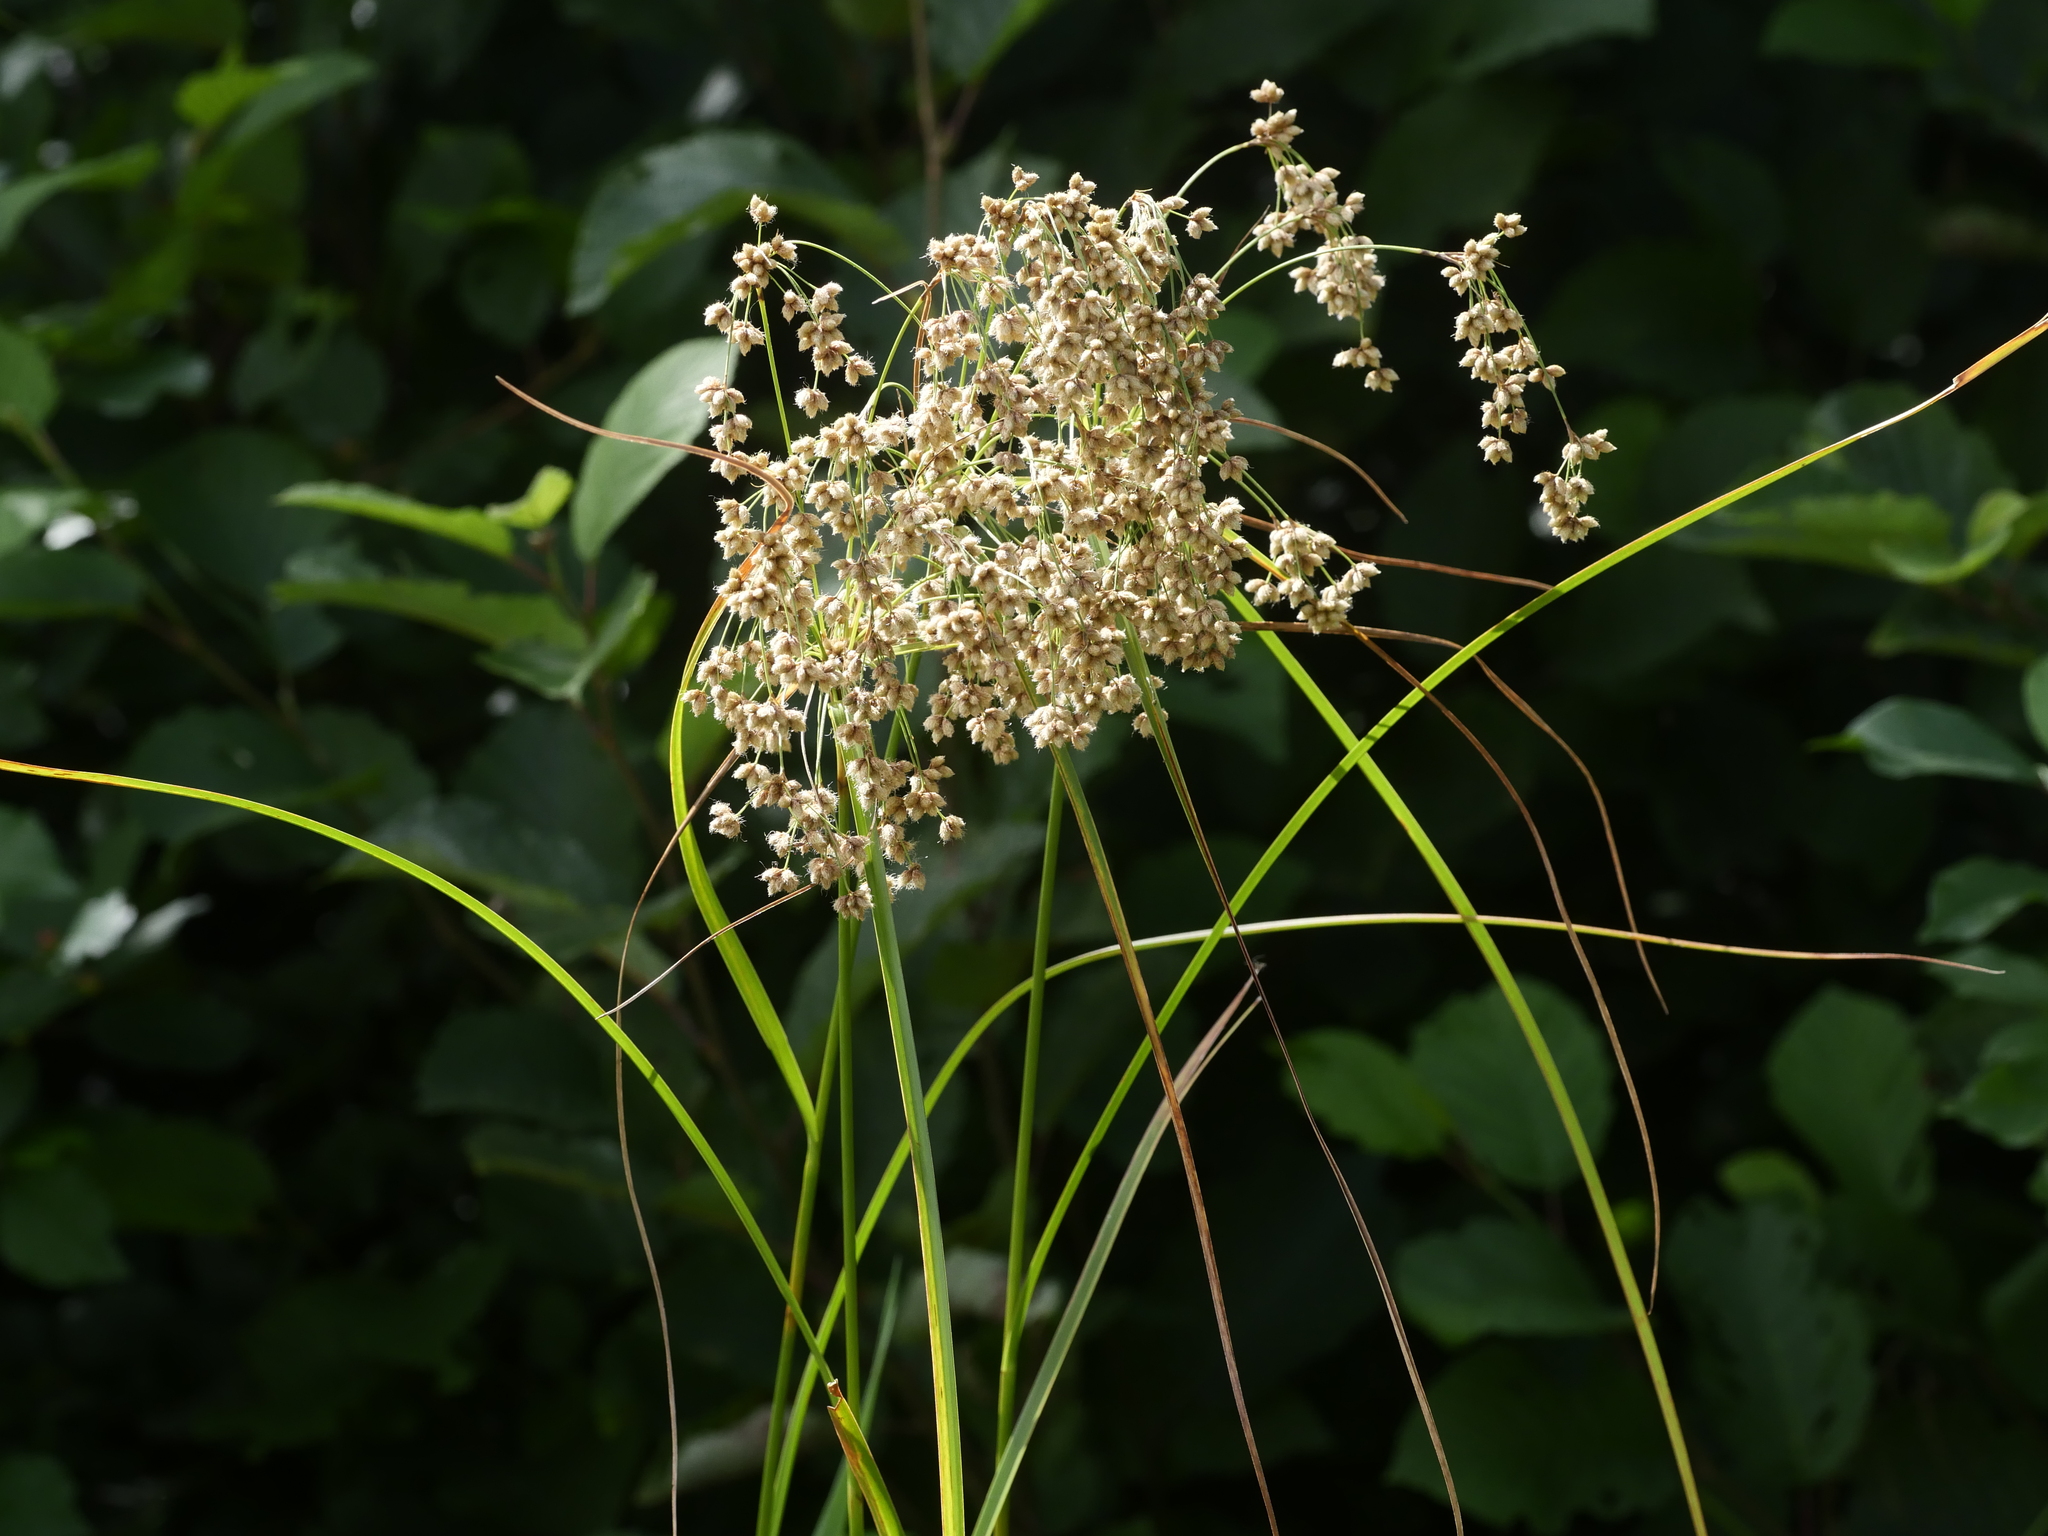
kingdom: Plantae
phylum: Tracheophyta
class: Liliopsida
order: Poales
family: Cyperaceae
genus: Scirpus
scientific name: Scirpus cyperinus
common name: Black-sheathed bulrush
